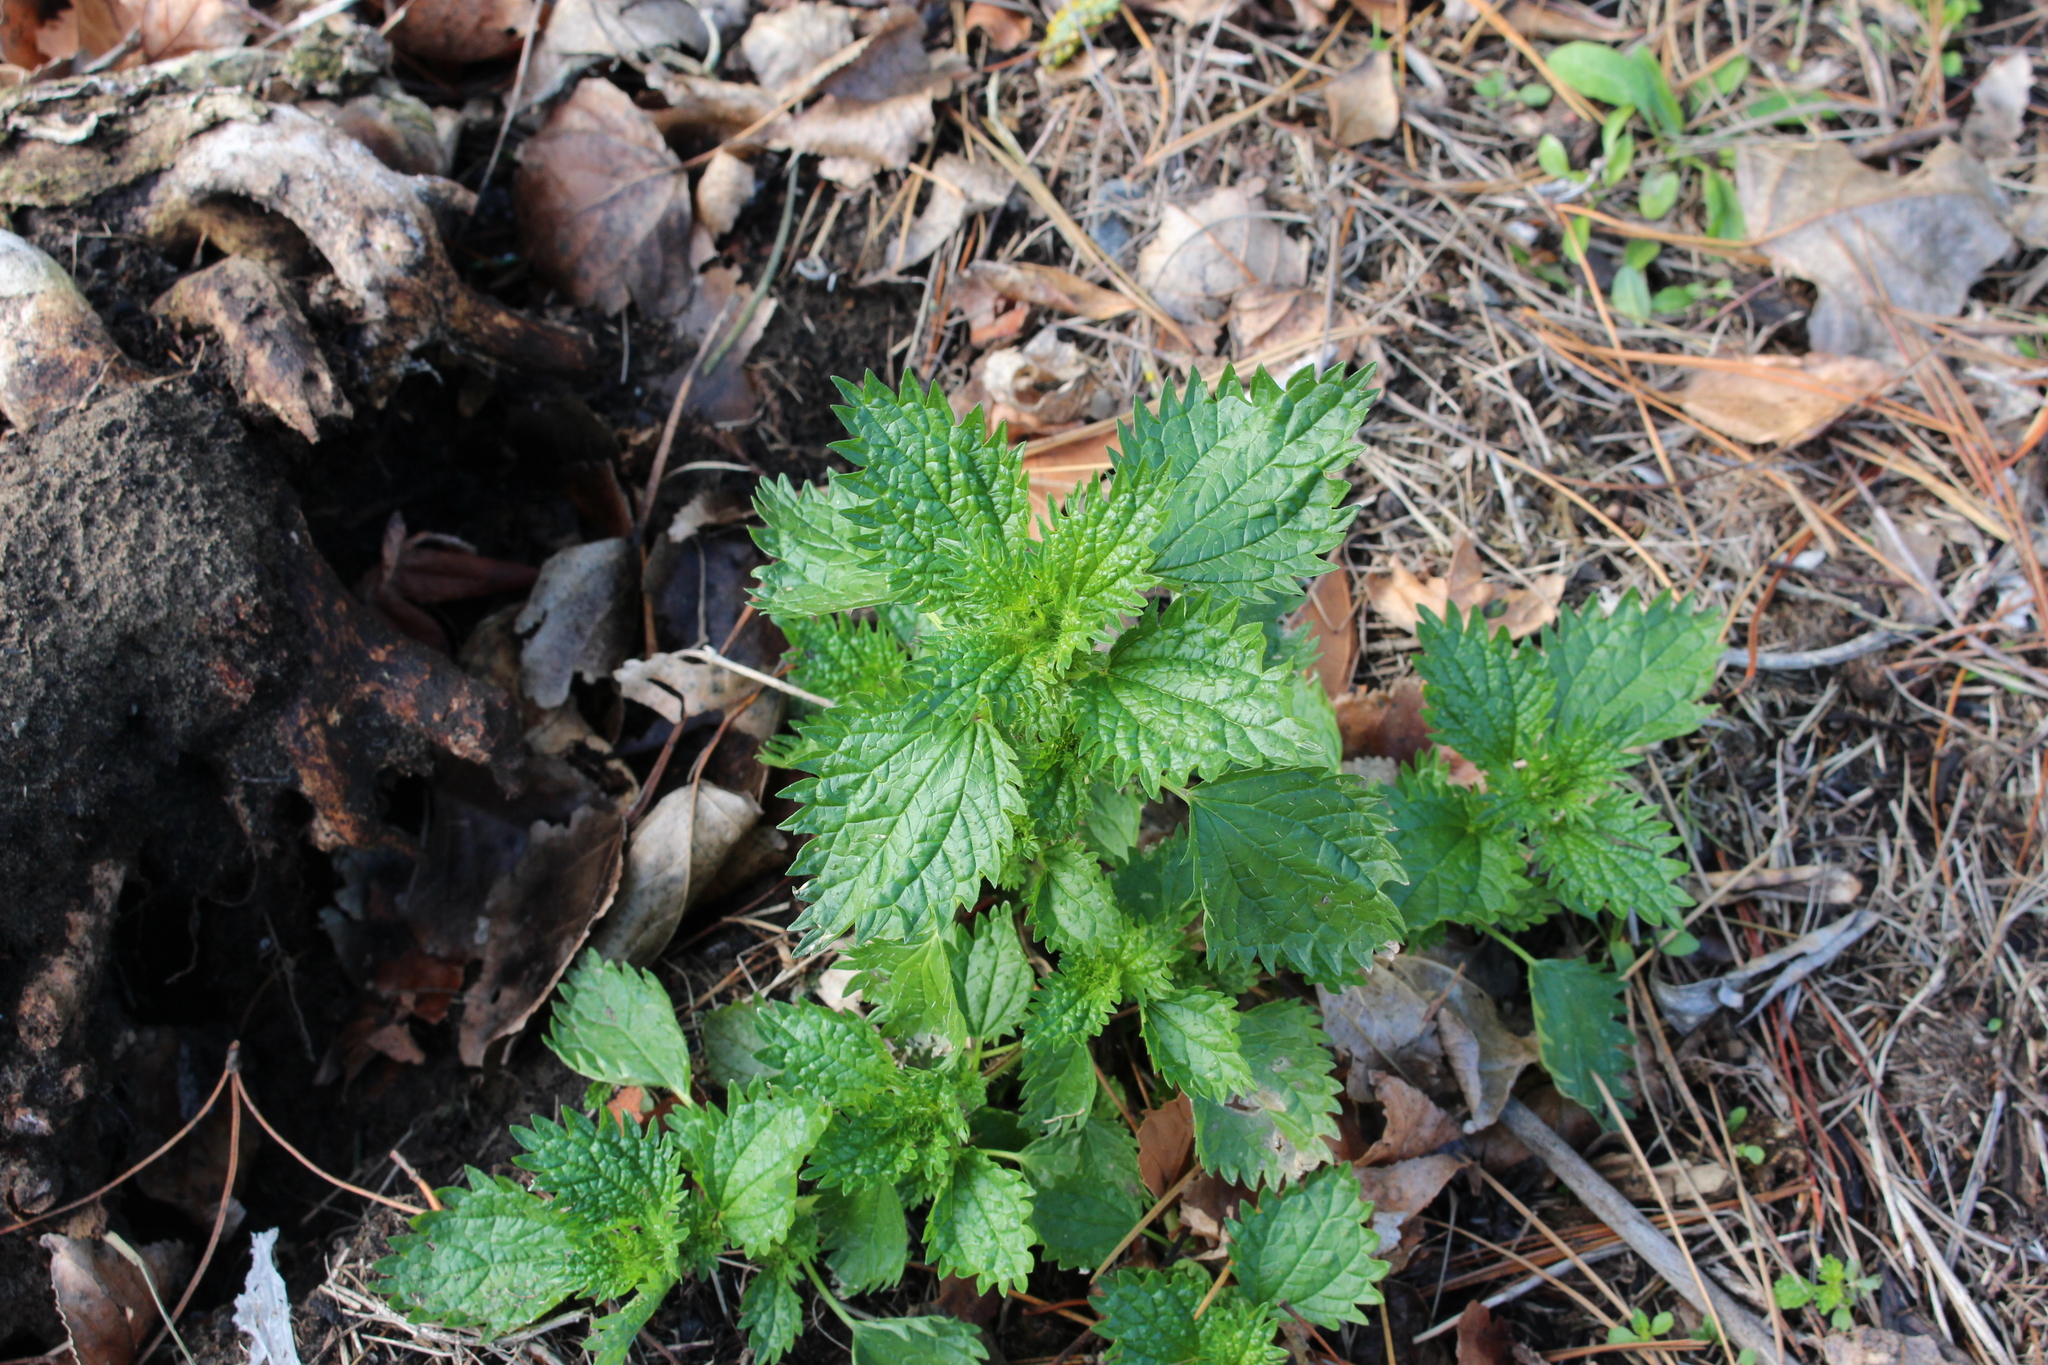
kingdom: Plantae
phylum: Tracheophyta
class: Magnoliopsida
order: Rosales
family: Urticaceae
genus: Urtica
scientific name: Urtica urens
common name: Dwarf nettle
